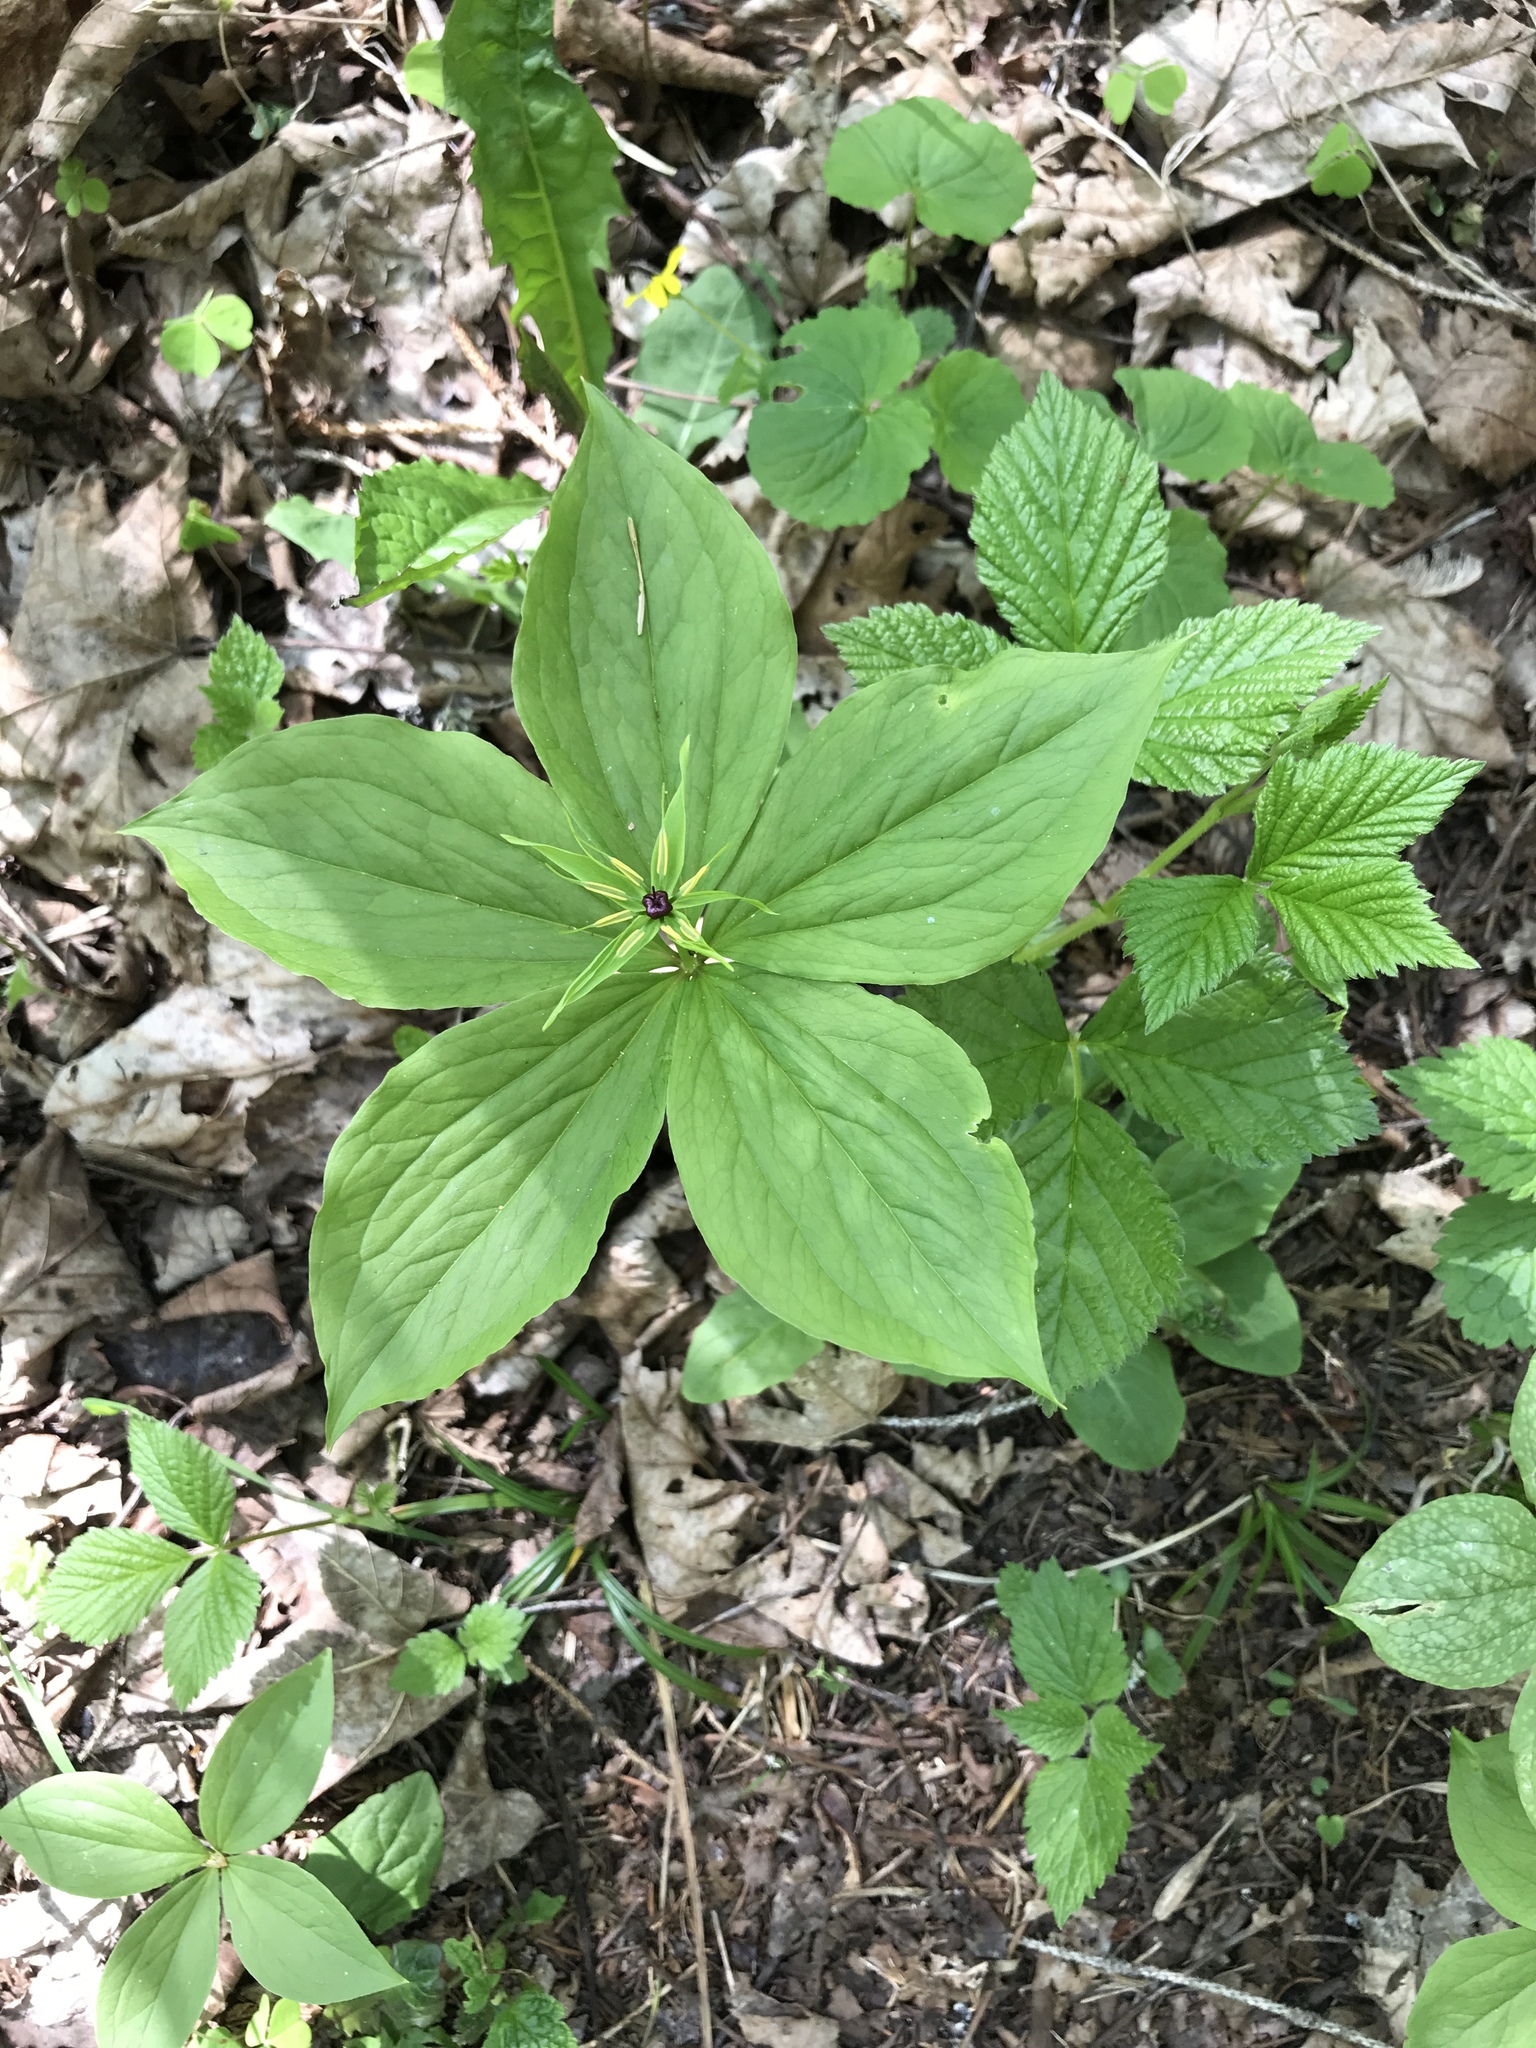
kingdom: Plantae
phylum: Tracheophyta
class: Liliopsida
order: Liliales
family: Melanthiaceae
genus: Paris
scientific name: Paris quadrifolia
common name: Herb-paris
